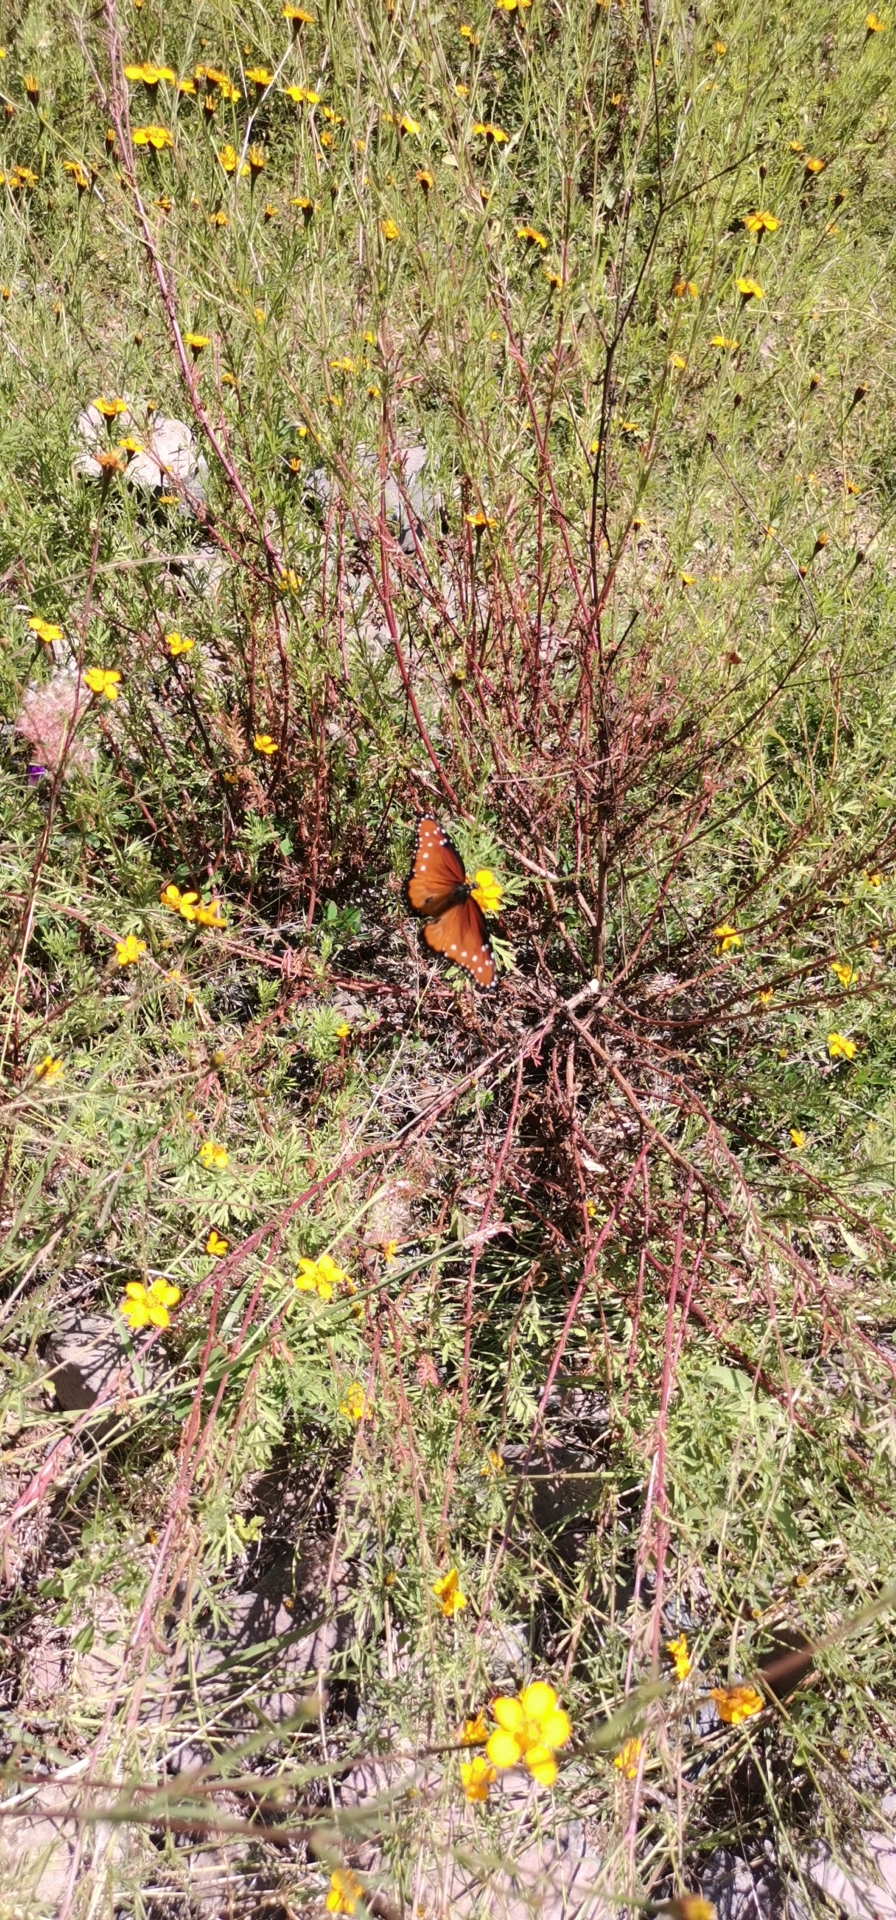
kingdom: Plantae
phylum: Tracheophyta
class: Magnoliopsida
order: Asterales
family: Asteraceae
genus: Dyssodia
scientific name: Dyssodia tagetiflora
